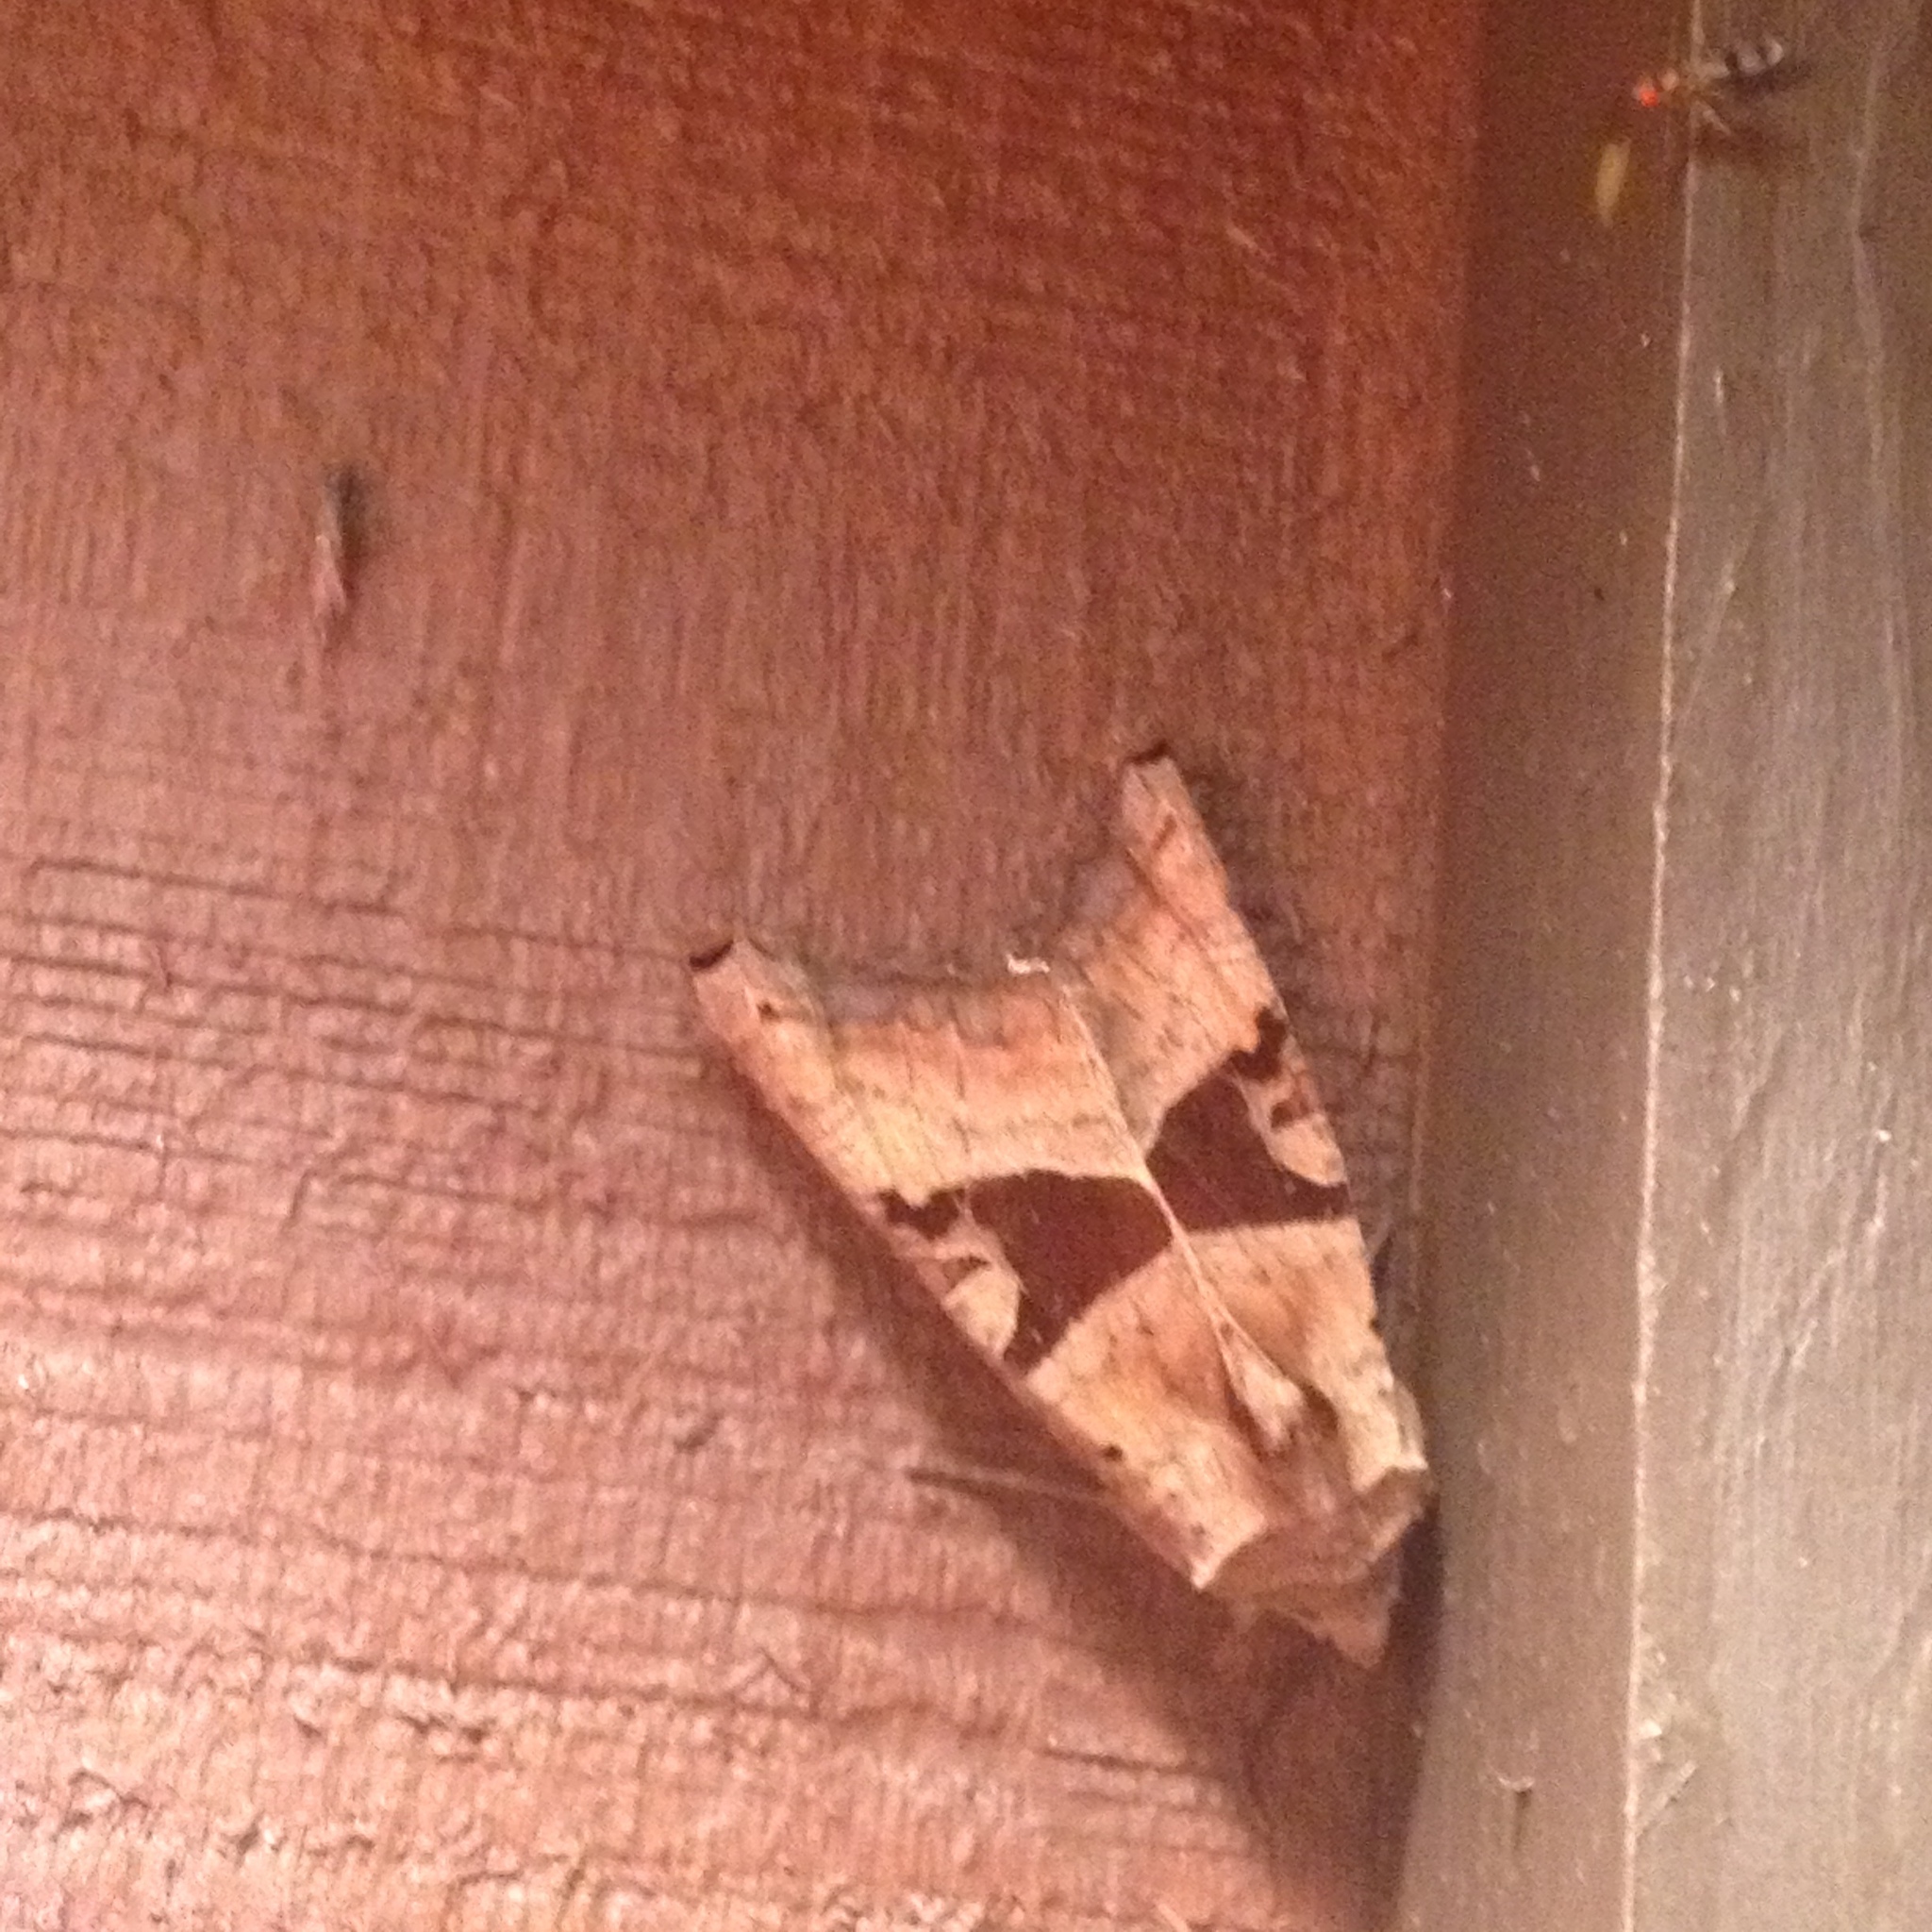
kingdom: Animalia
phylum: Arthropoda
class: Insecta
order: Lepidoptera
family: Noctuidae
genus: Phlogophora
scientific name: Phlogophora periculosa
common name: Brown angle shades
